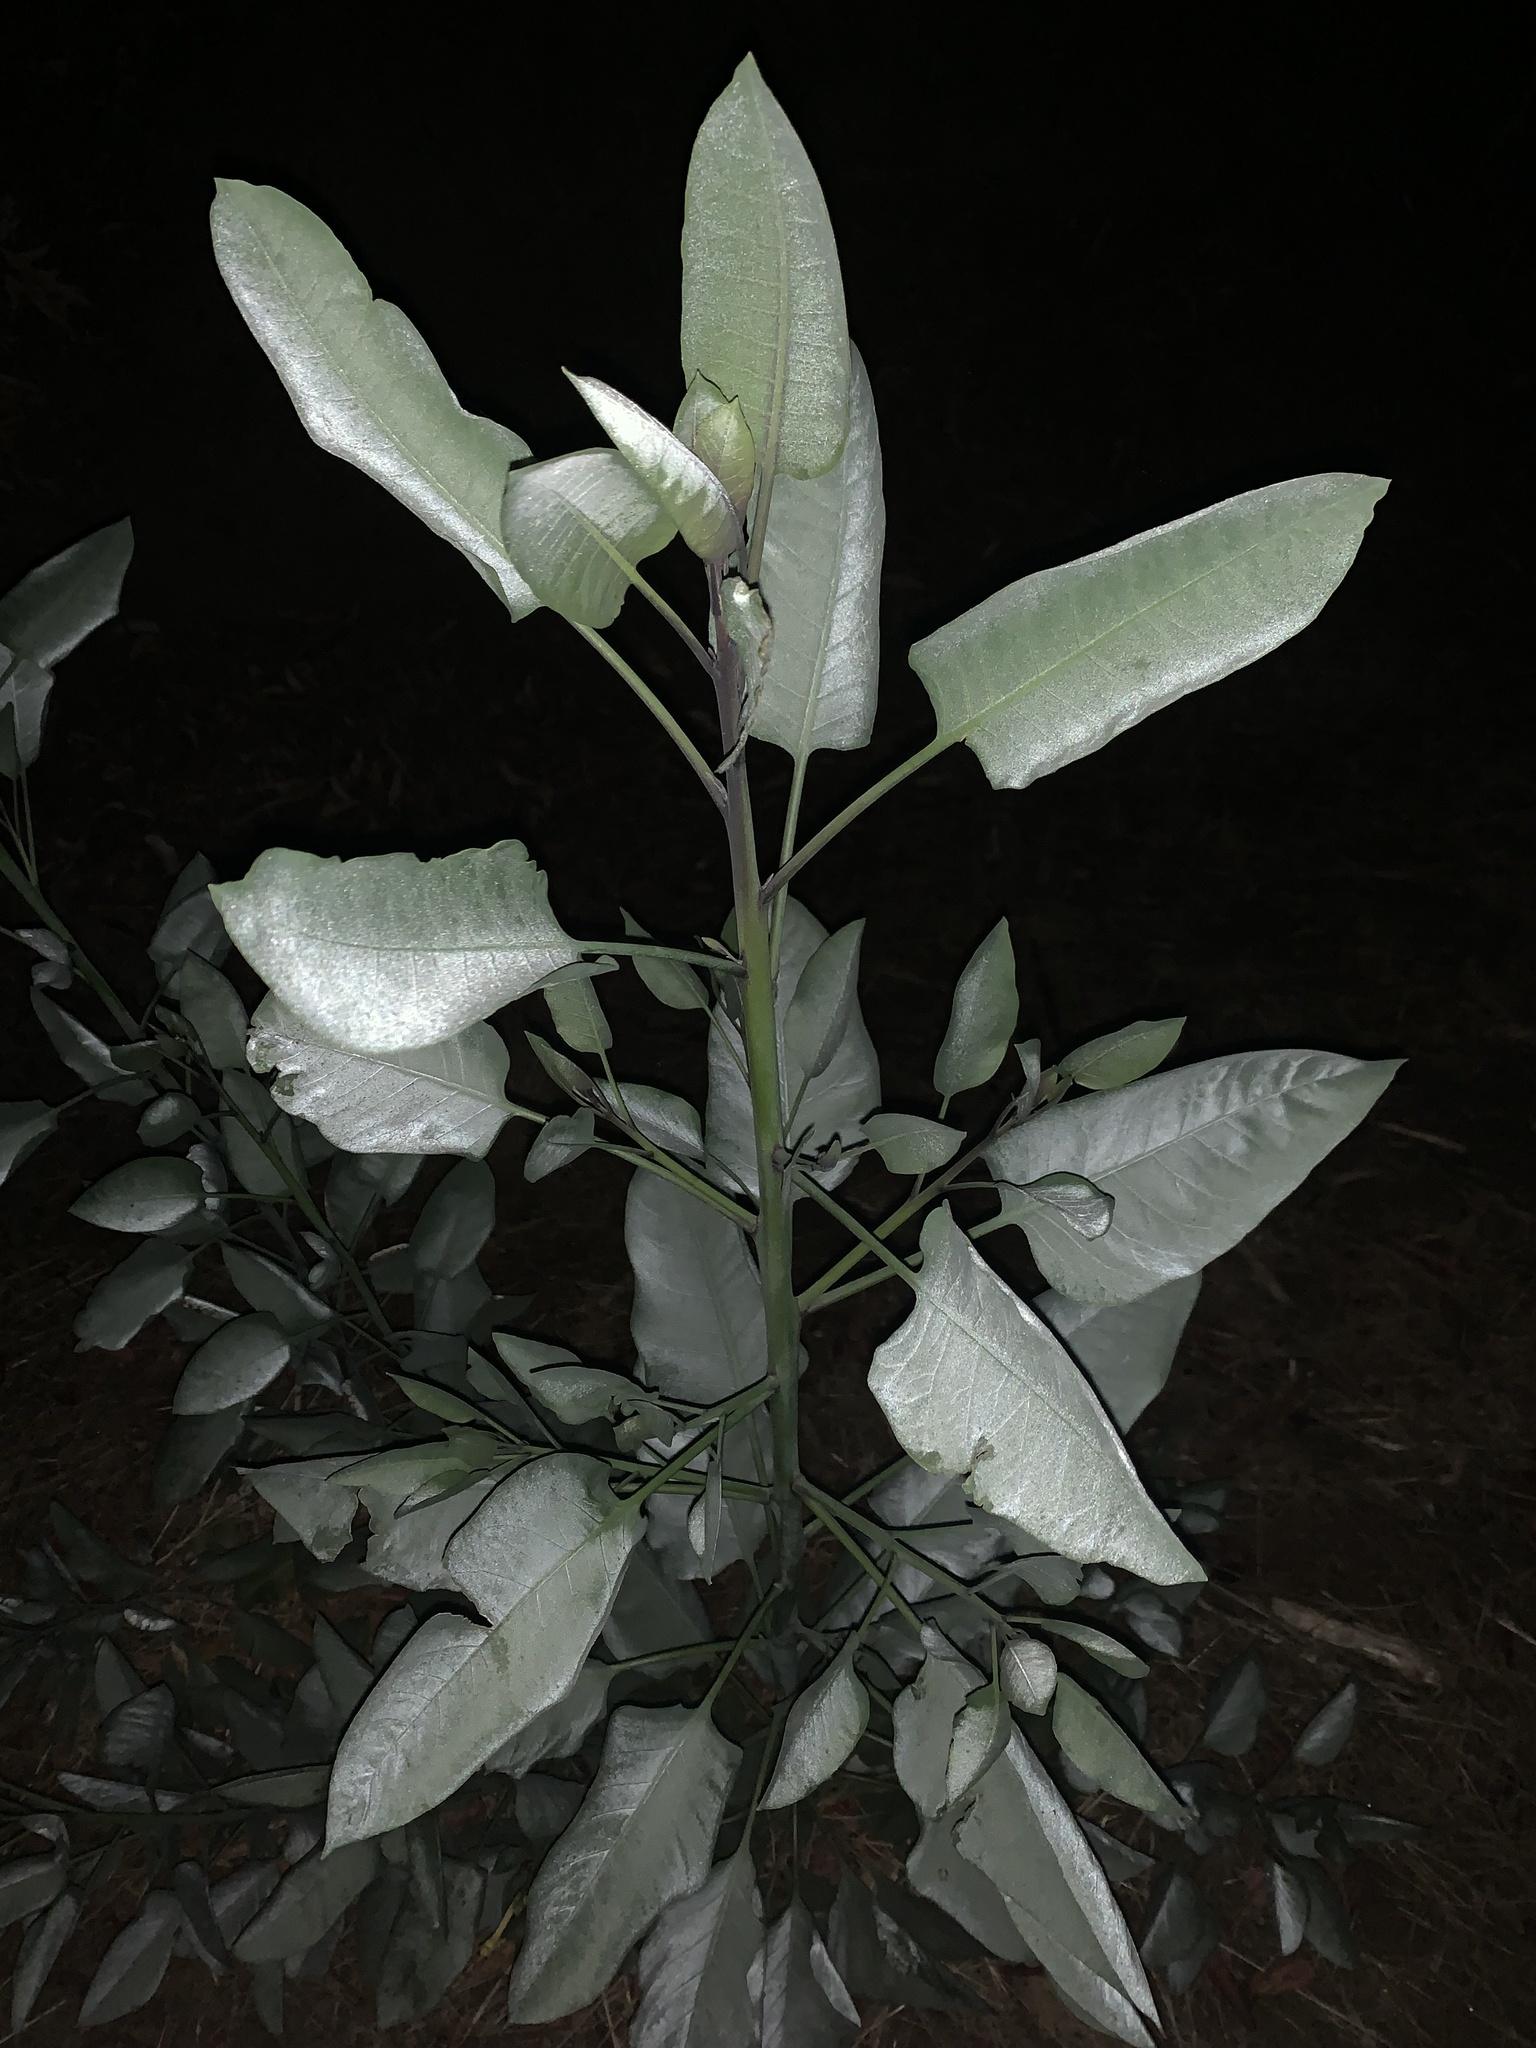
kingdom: Plantae
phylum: Tracheophyta
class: Magnoliopsida
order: Solanales
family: Solanaceae
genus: Nicotiana
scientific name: Nicotiana glauca
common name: Tree tobacco
